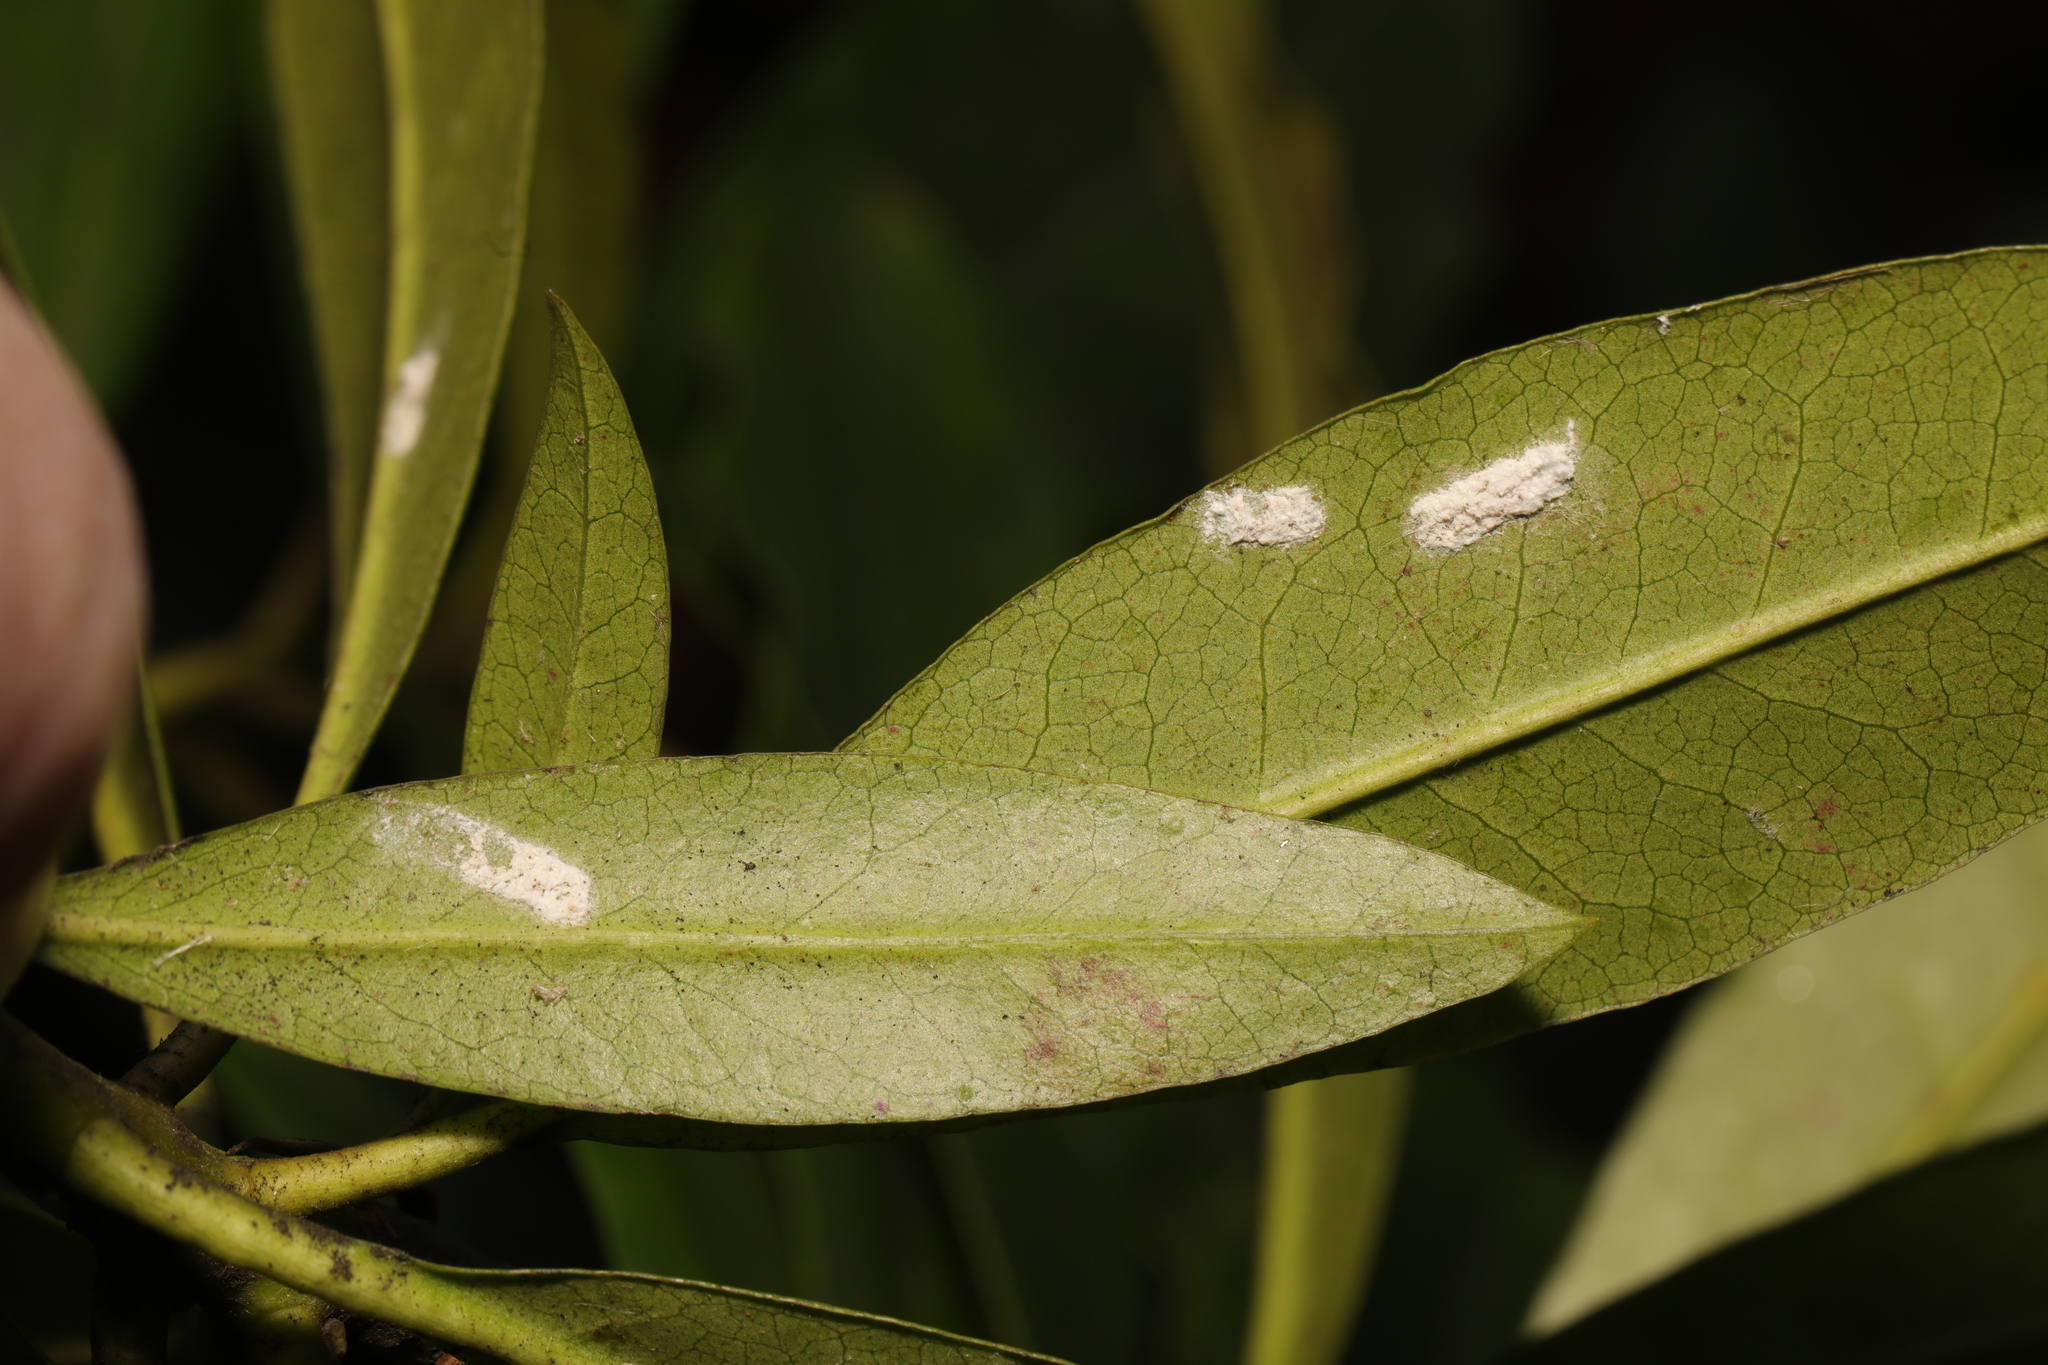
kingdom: Animalia
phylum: Arthropoda
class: Insecta
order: Hemiptera
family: Coccidae
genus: Pulvinaria
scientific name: Pulvinaria floccifera
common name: Cottony camellia scale
